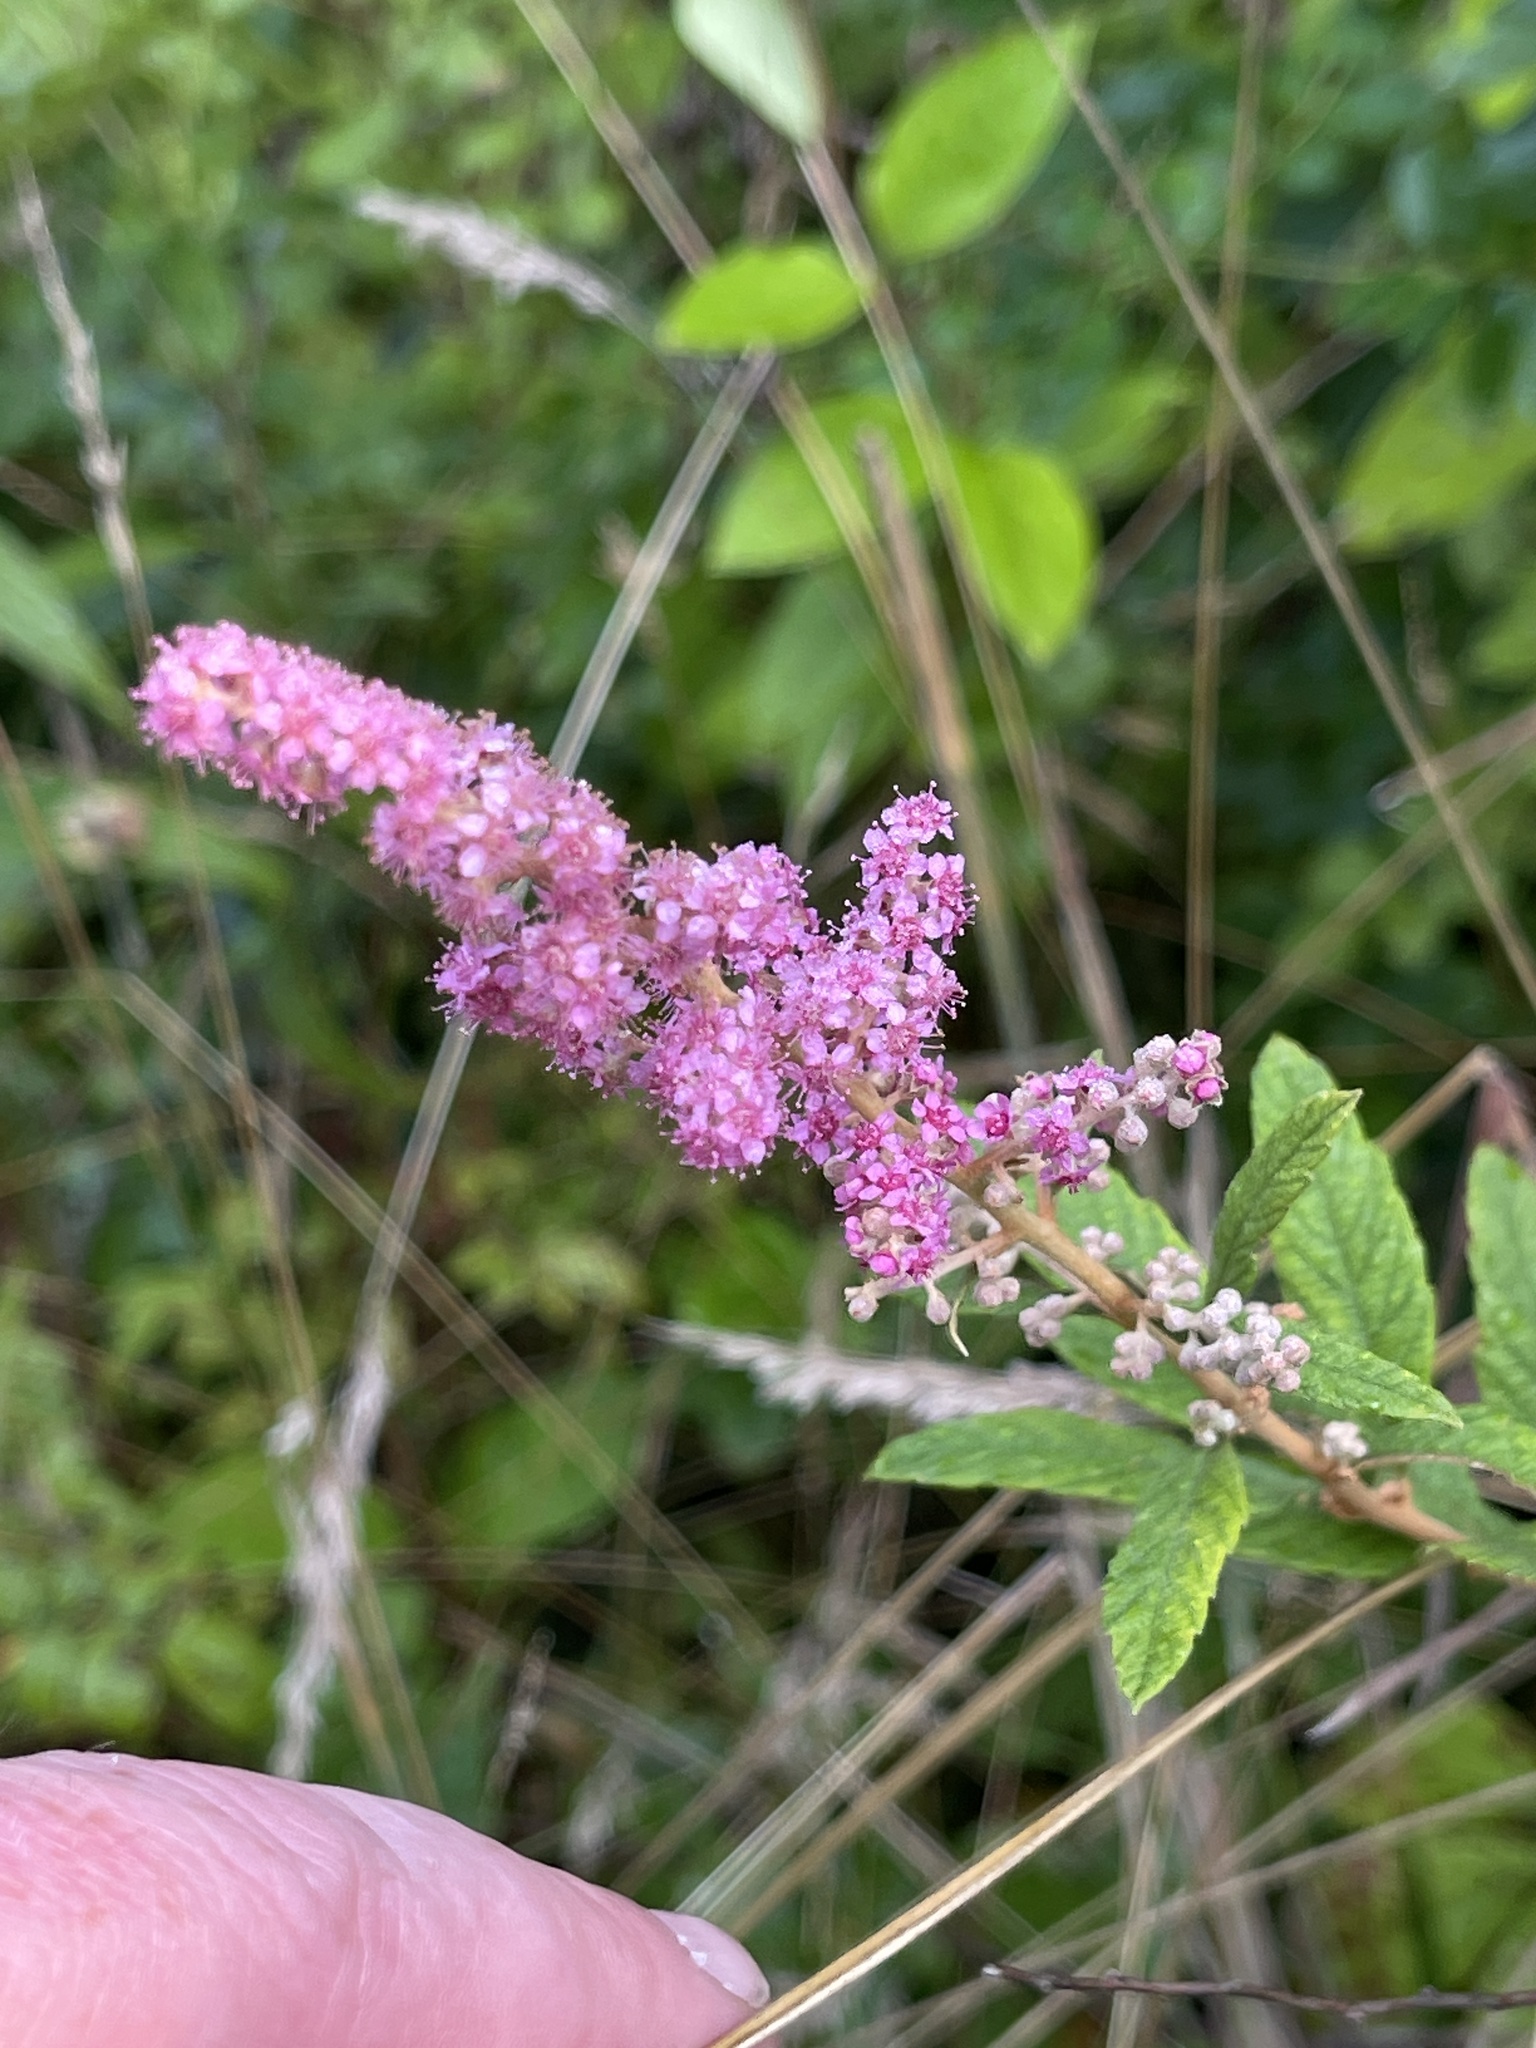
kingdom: Plantae
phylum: Tracheophyta
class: Magnoliopsida
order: Rosales
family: Rosaceae
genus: Spiraea
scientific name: Spiraea tomentosa
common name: Hardhack
